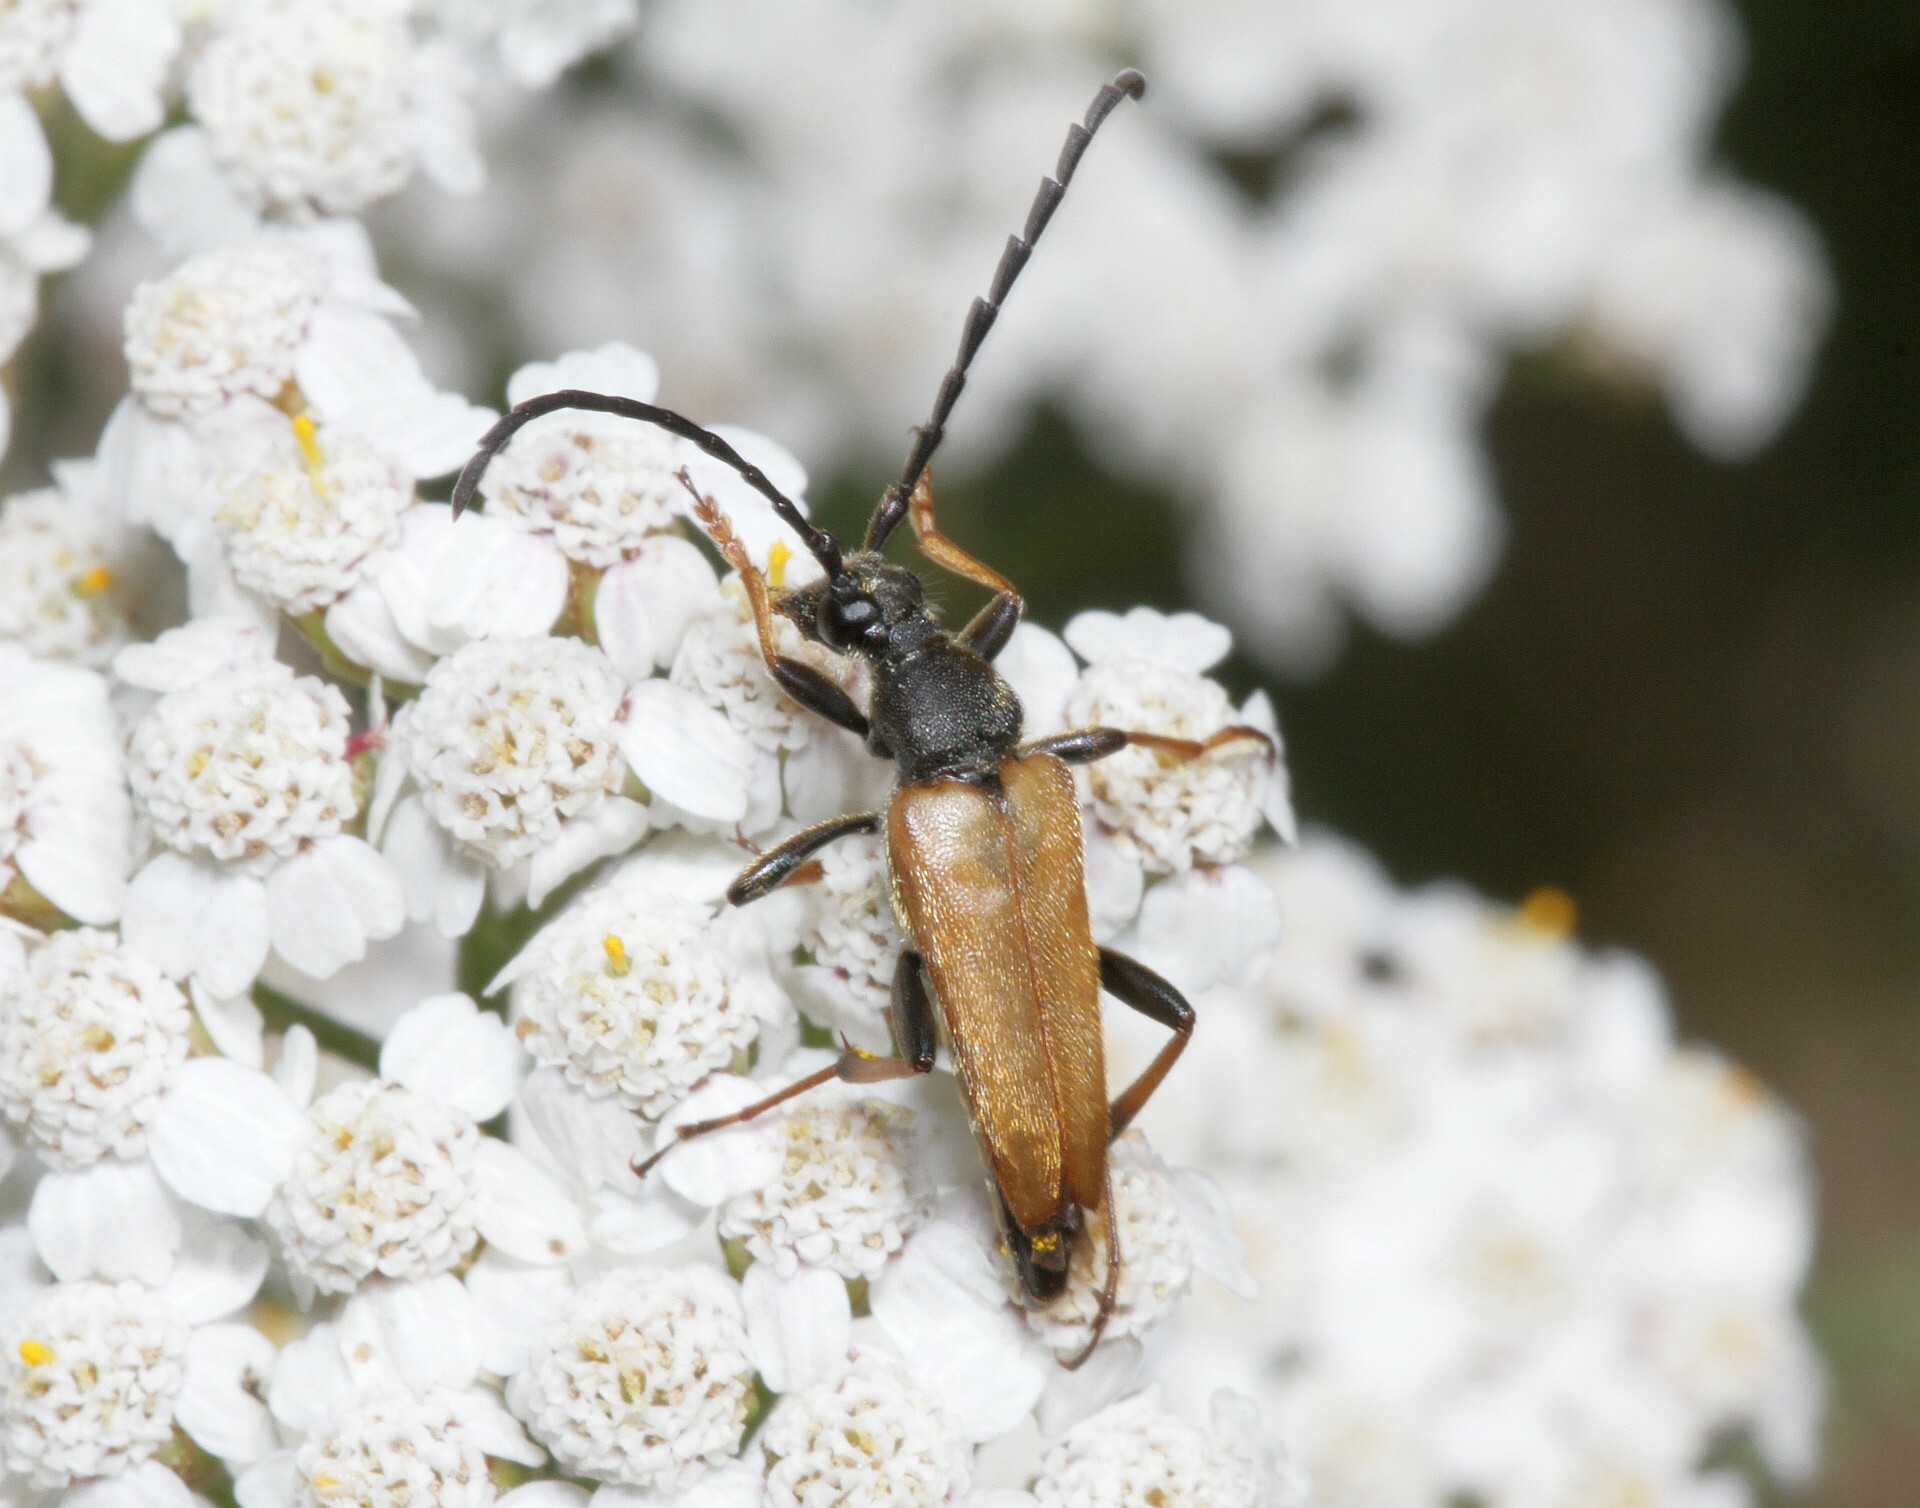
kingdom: Animalia
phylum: Arthropoda
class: Insecta
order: Coleoptera
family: Cerambycidae
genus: Stictoleptura
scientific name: Stictoleptura rubra
